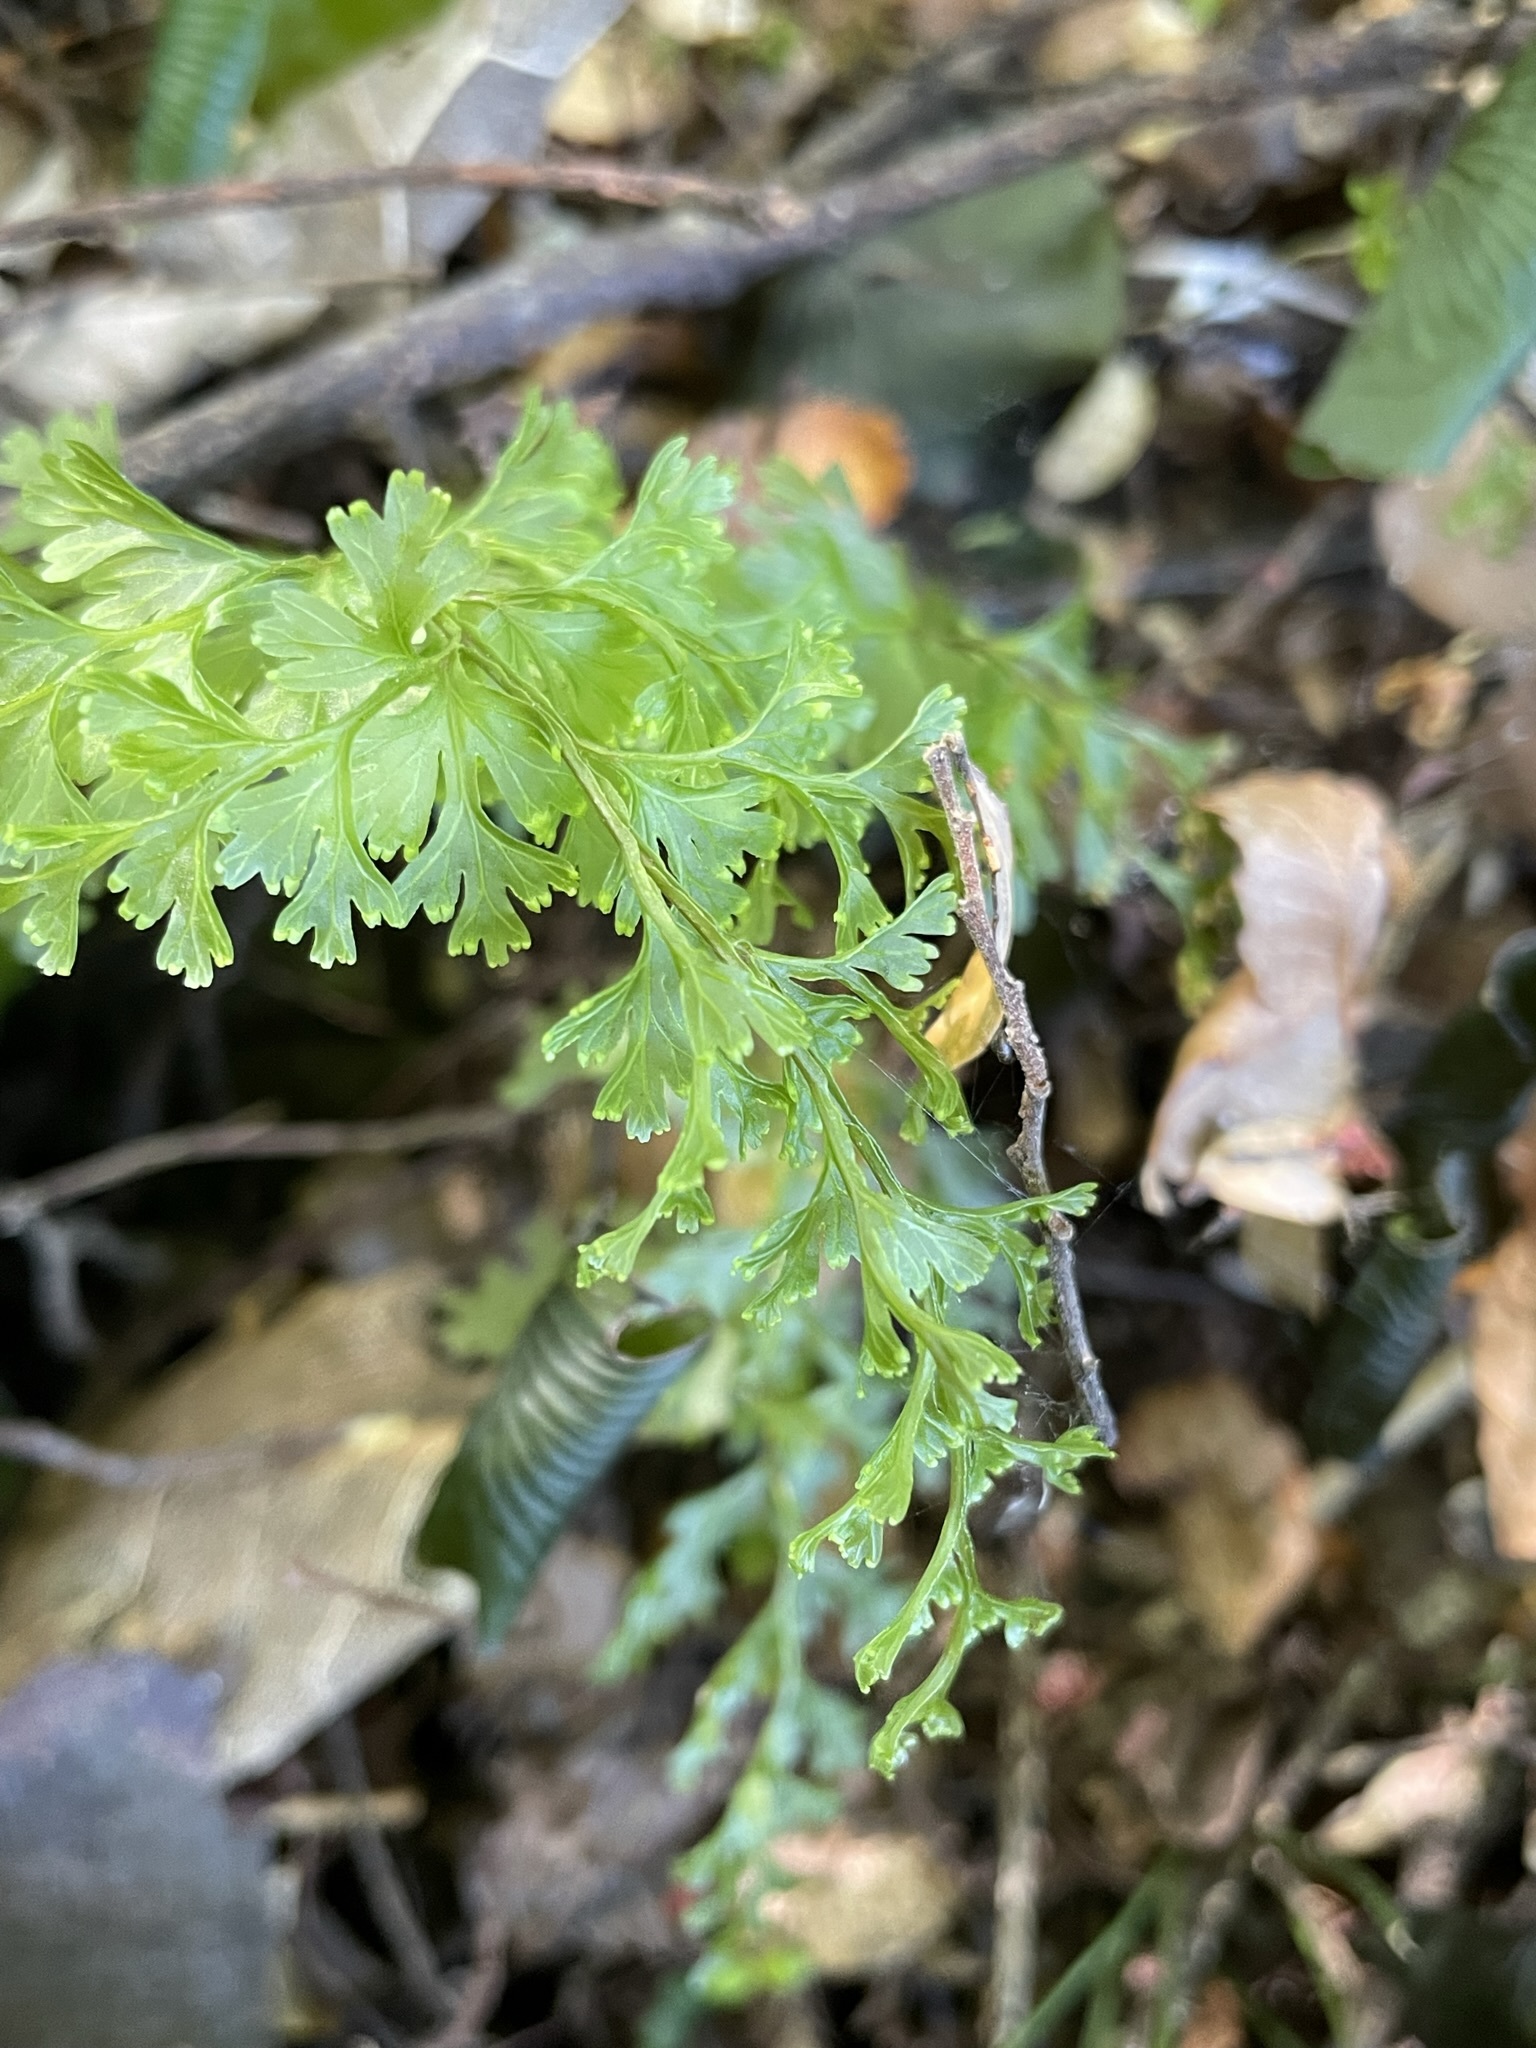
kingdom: Plantae
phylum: Tracheophyta
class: Polypodiopsida
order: Hymenophyllales
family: Hymenophyllaceae
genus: Hymenophyllum
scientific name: Hymenophyllum demissum
